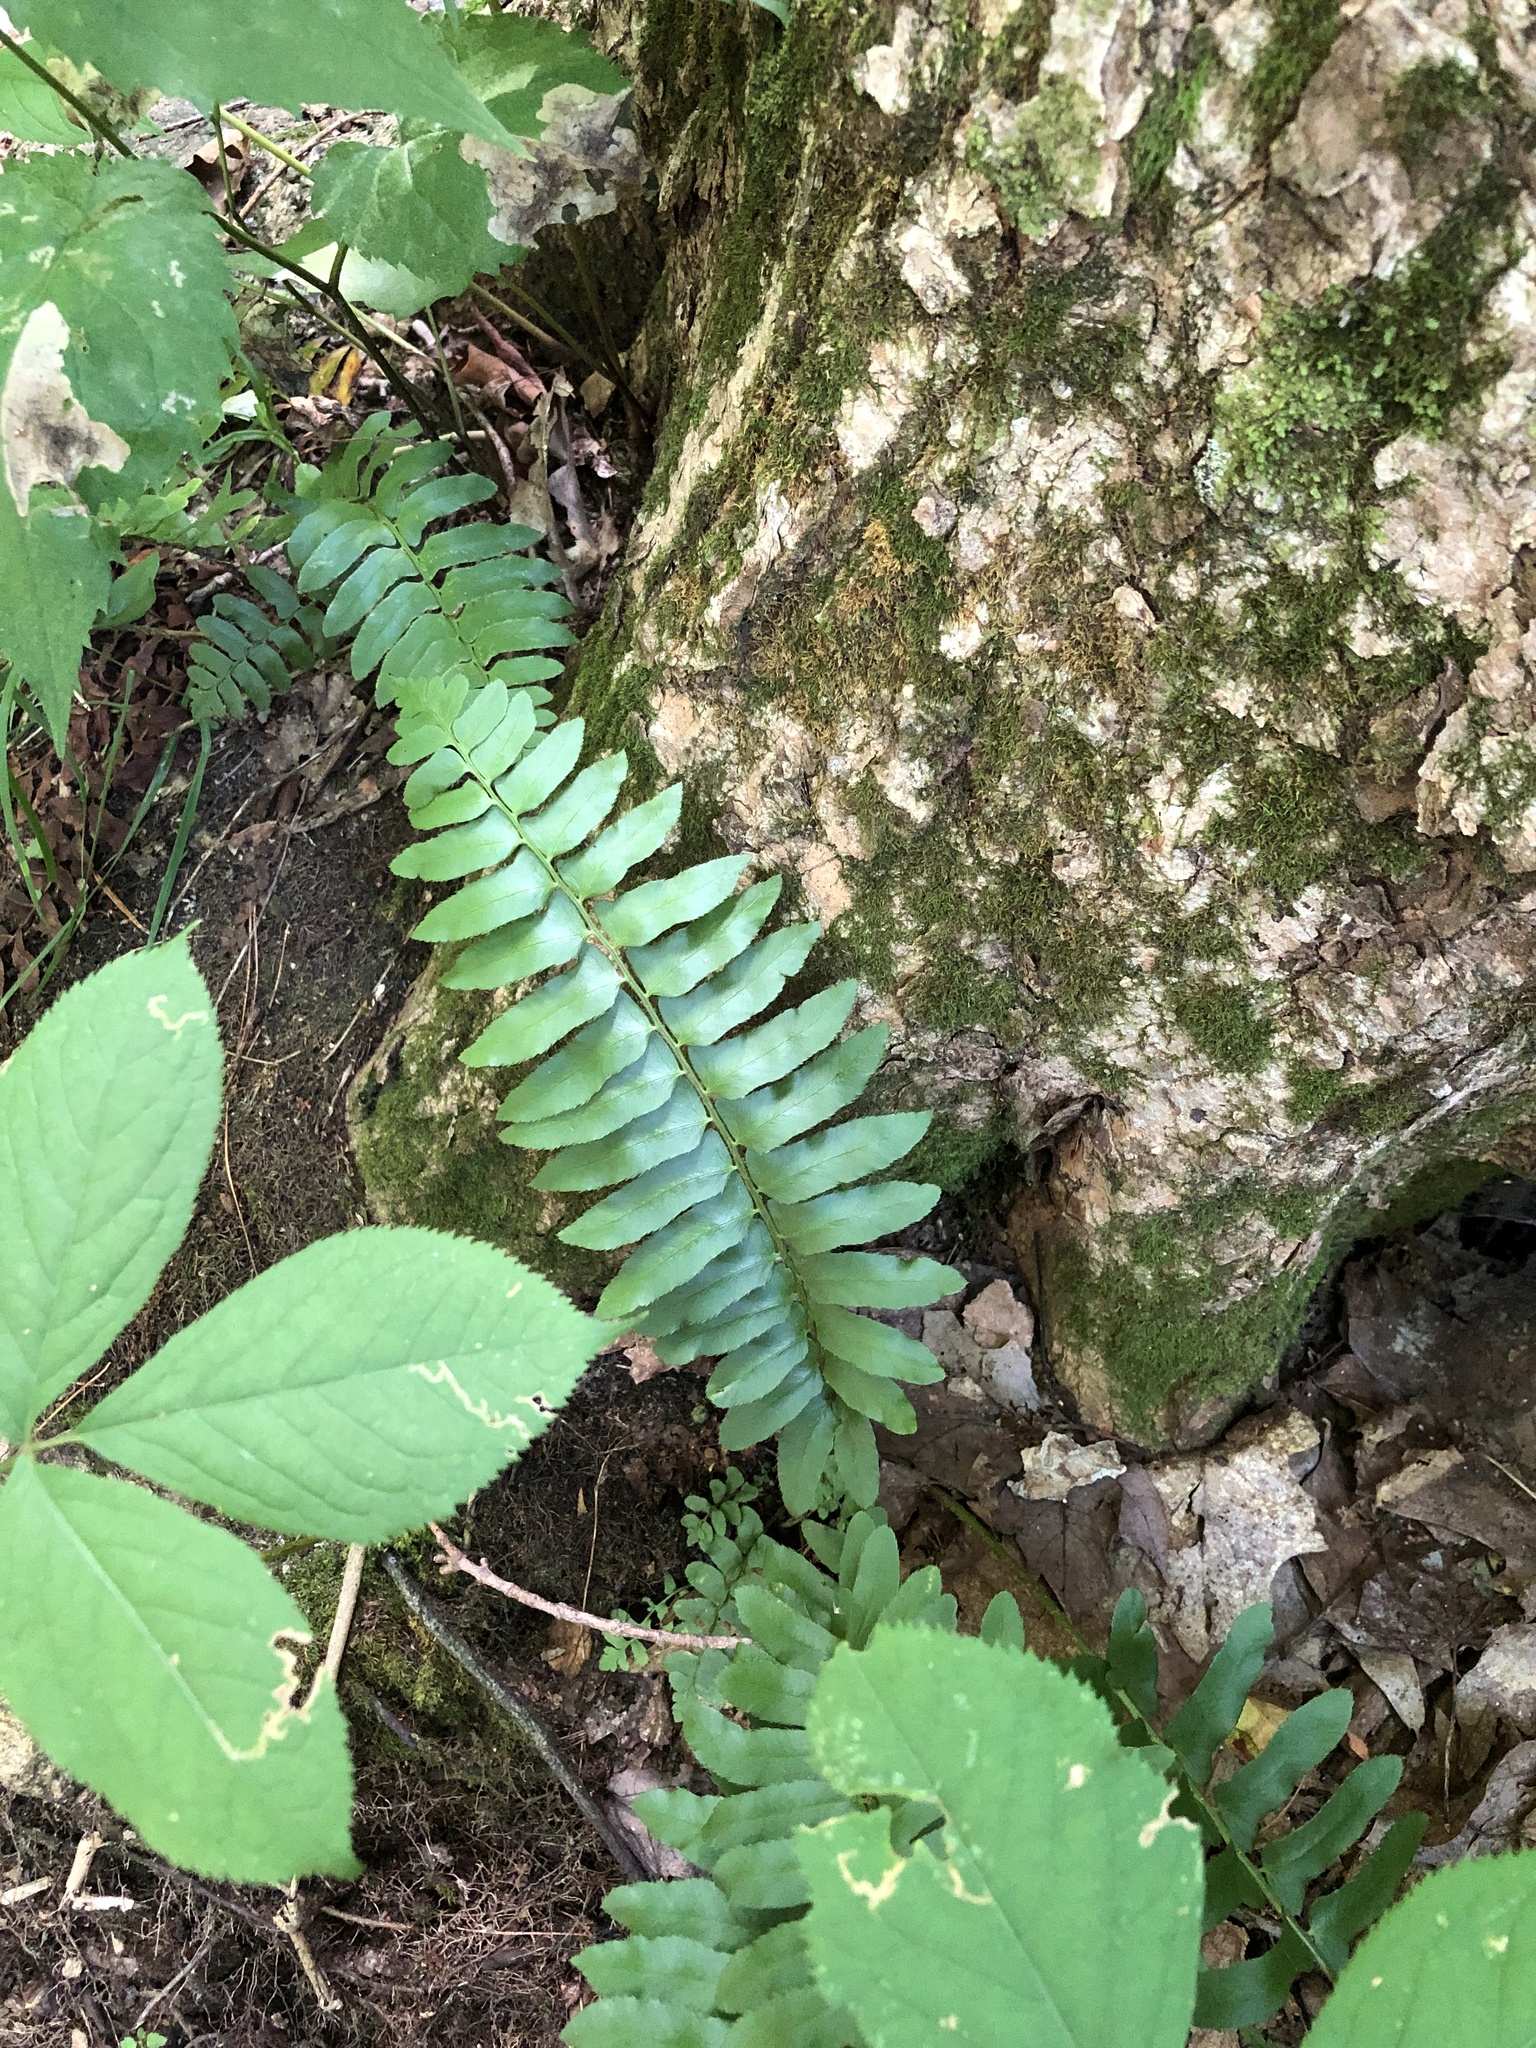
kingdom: Plantae
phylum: Tracheophyta
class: Polypodiopsida
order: Polypodiales
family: Dryopteridaceae
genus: Polystichum
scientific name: Polystichum acrostichoides
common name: Christmas fern
